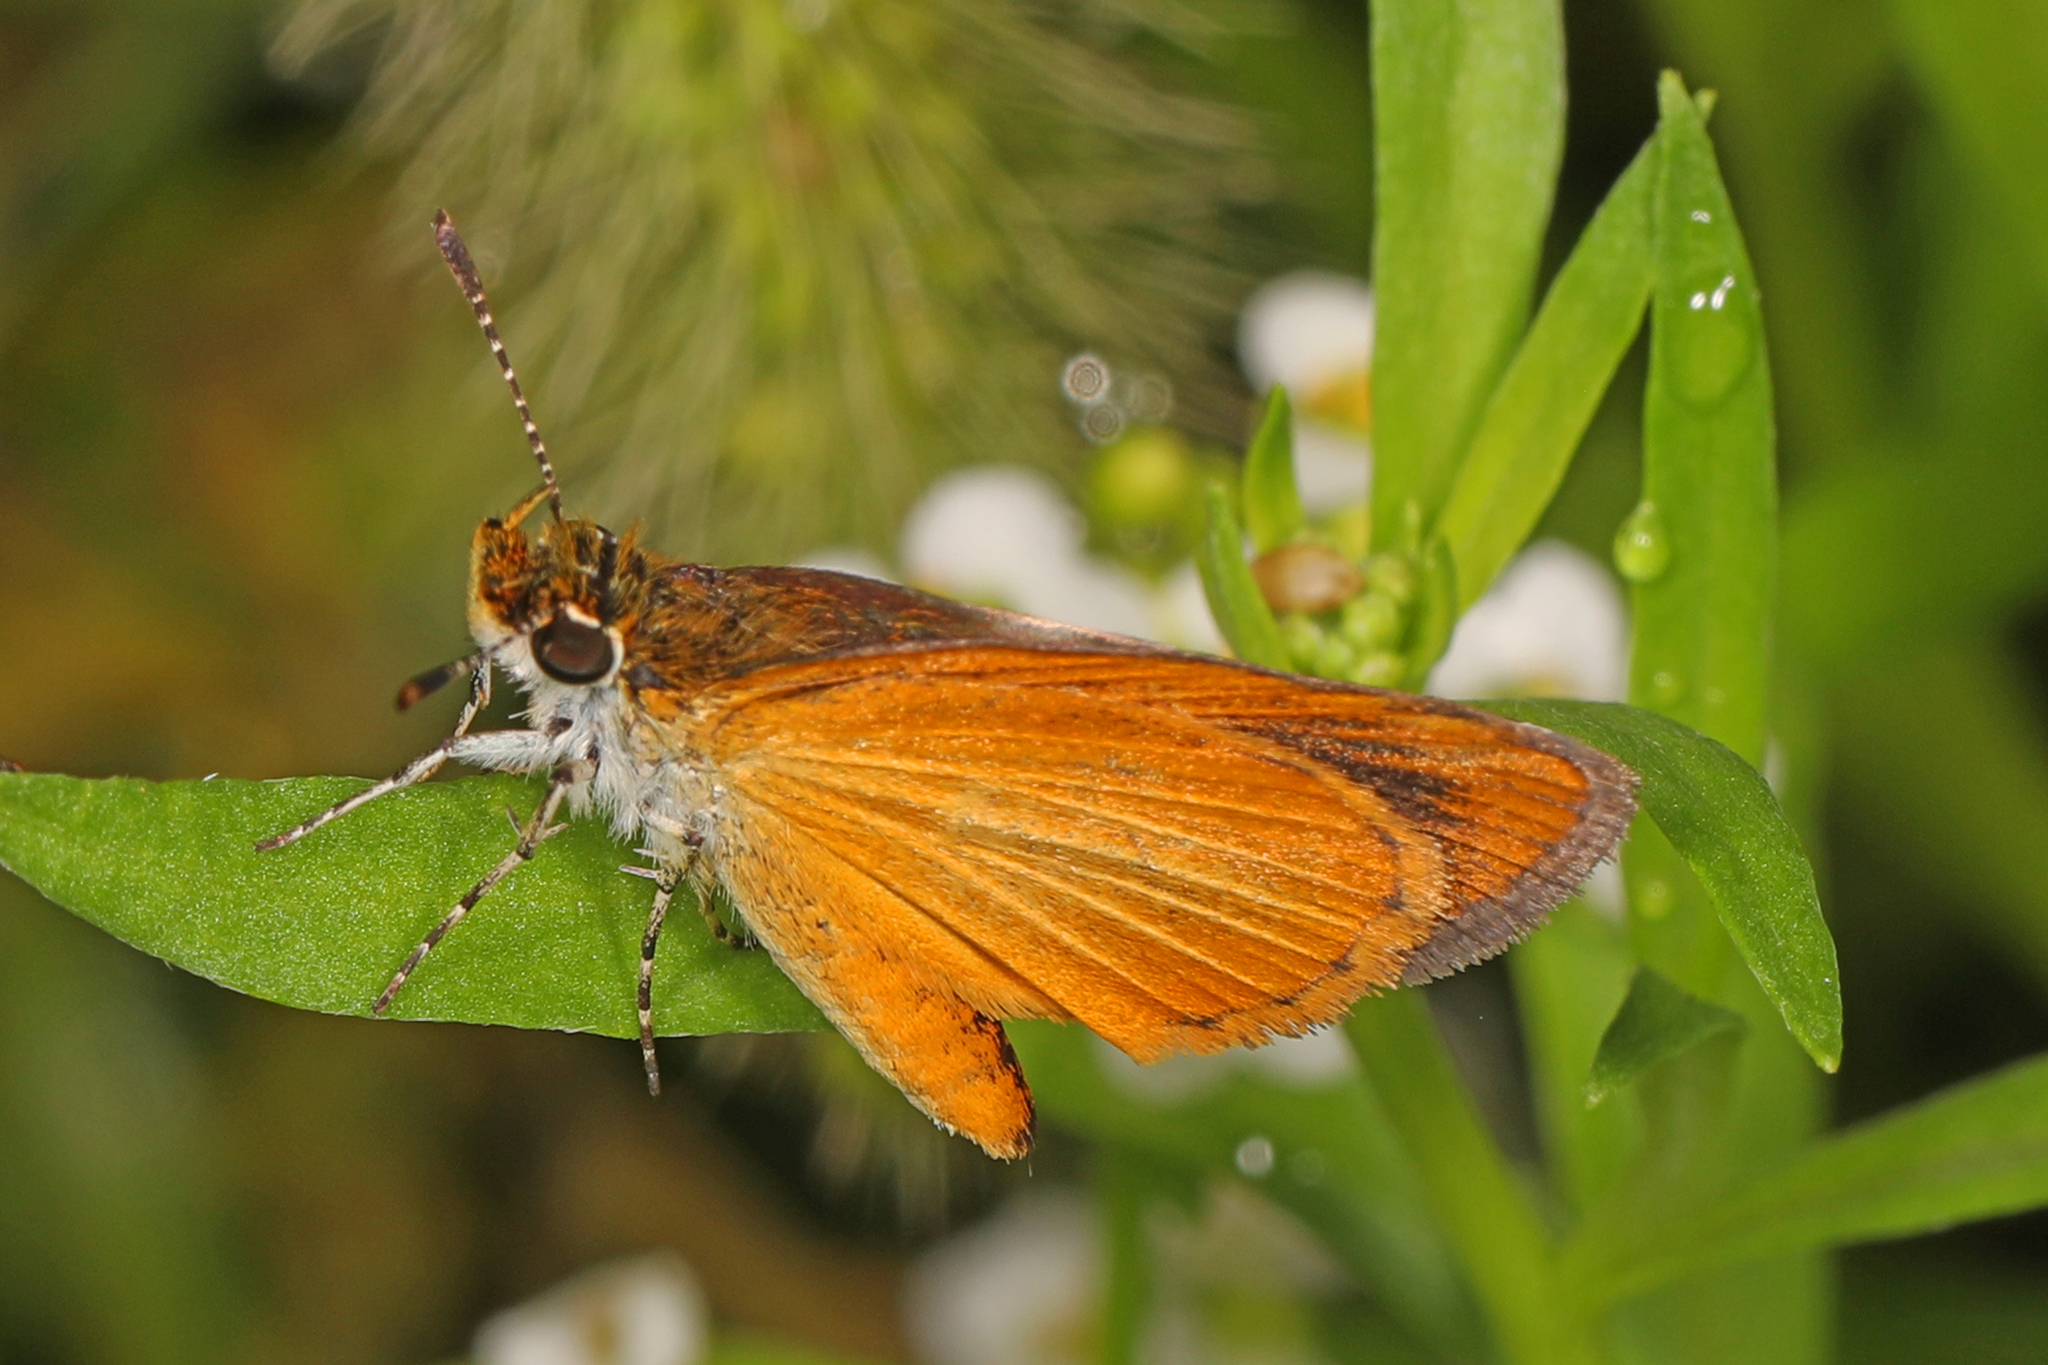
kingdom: Animalia
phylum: Arthropoda
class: Insecta
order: Lepidoptera
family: Hesperiidae
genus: Ancyloxypha
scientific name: Ancyloxypha numitor
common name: Least skipper
